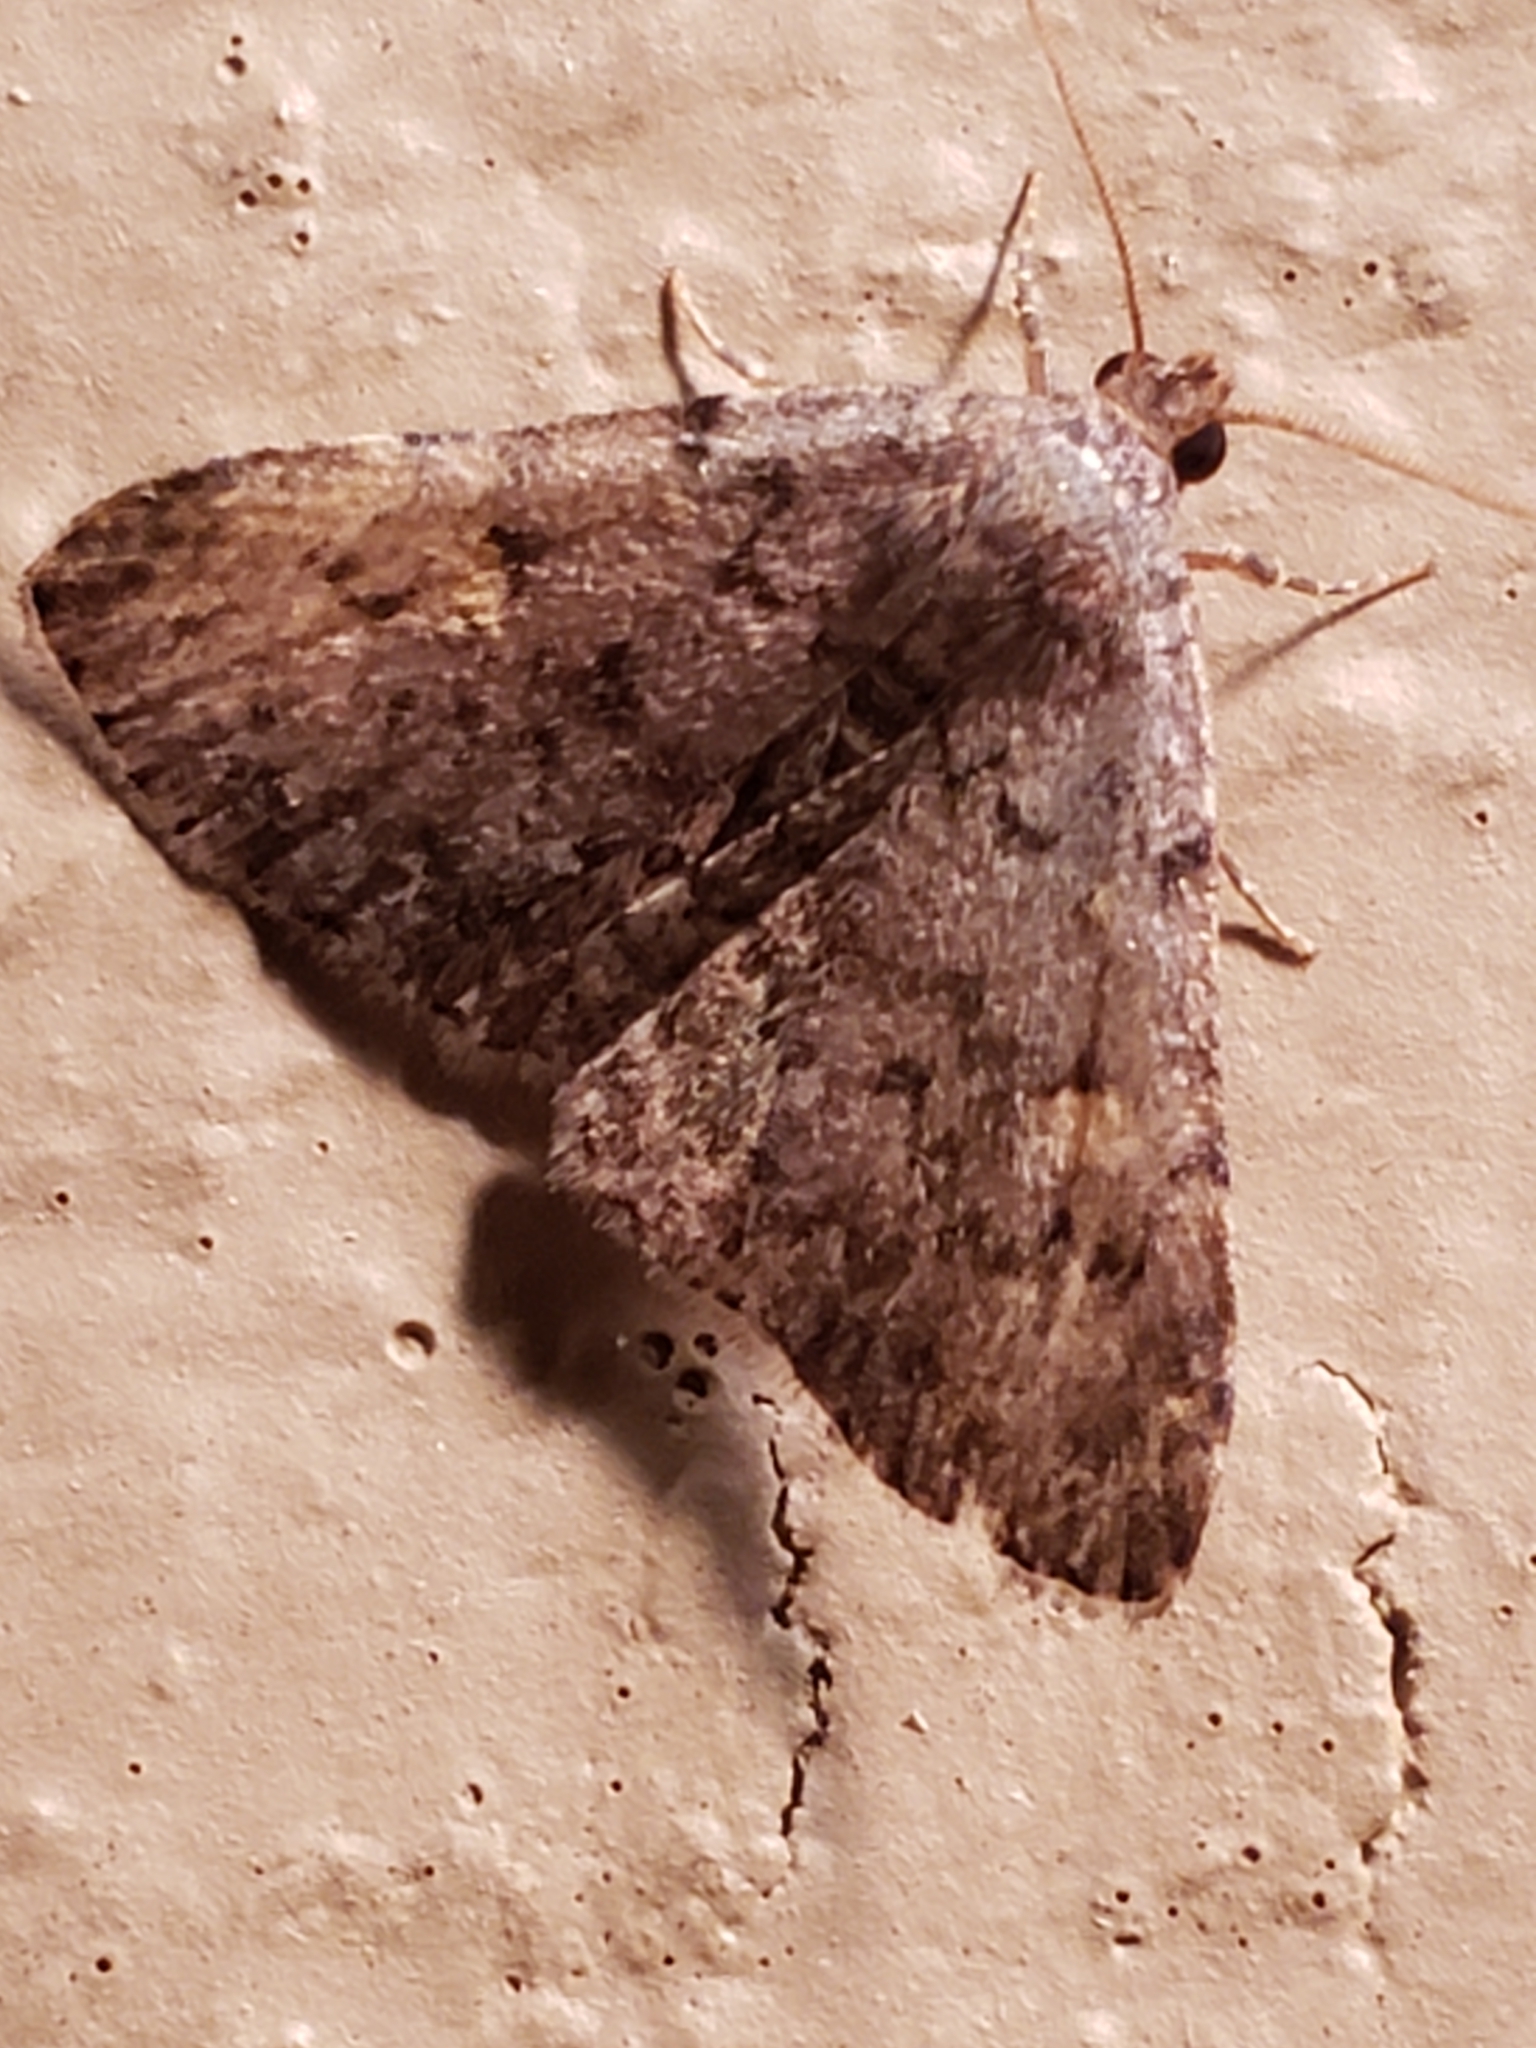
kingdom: Animalia
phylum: Arthropoda
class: Insecta
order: Lepidoptera
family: Erebidae
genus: Idia
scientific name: Idia aemula
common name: Common idia moth
